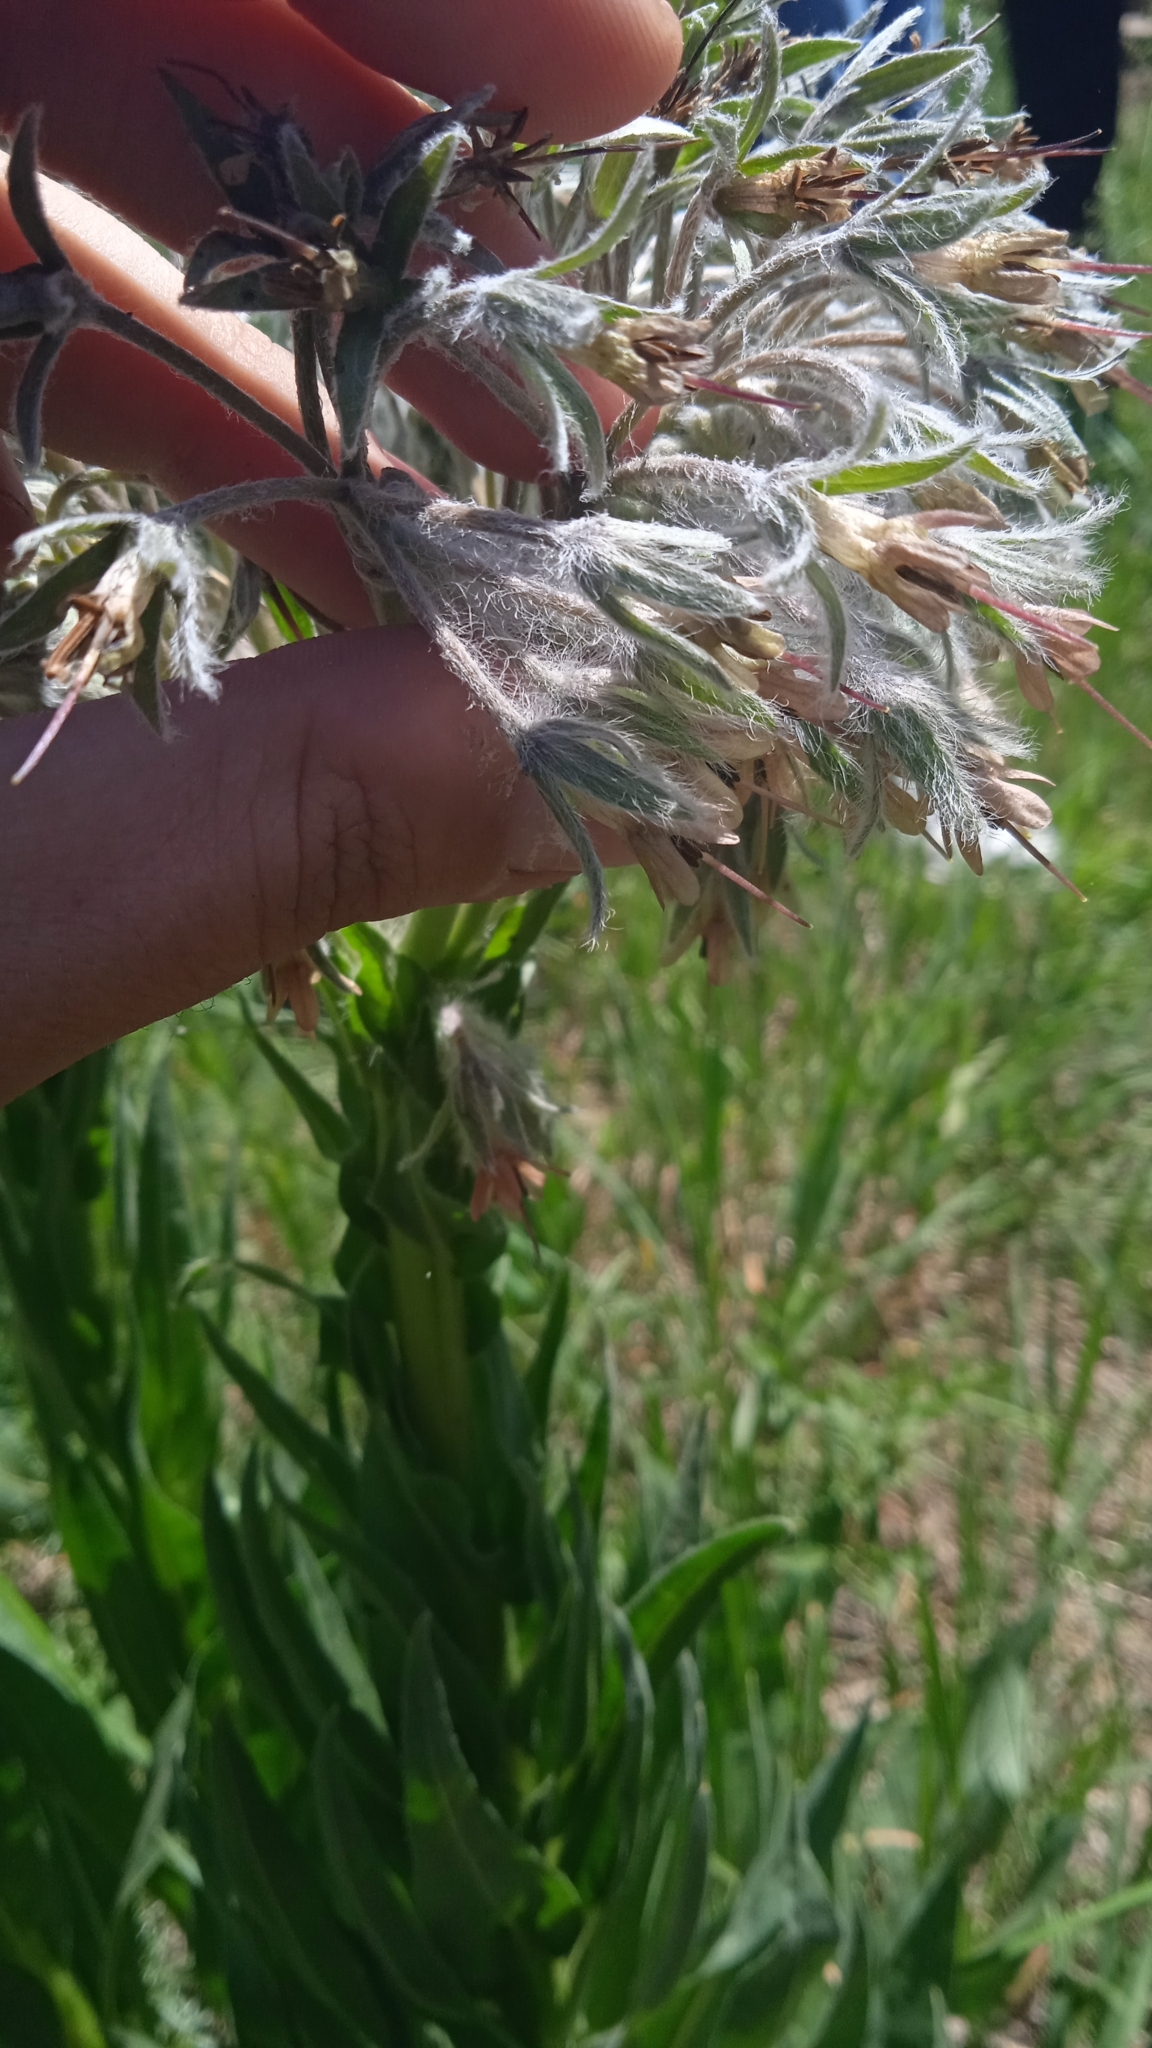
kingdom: Plantae
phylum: Tracheophyta
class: Magnoliopsida
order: Boraginales
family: Boraginaceae
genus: Rindera
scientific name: Rindera umbellata
